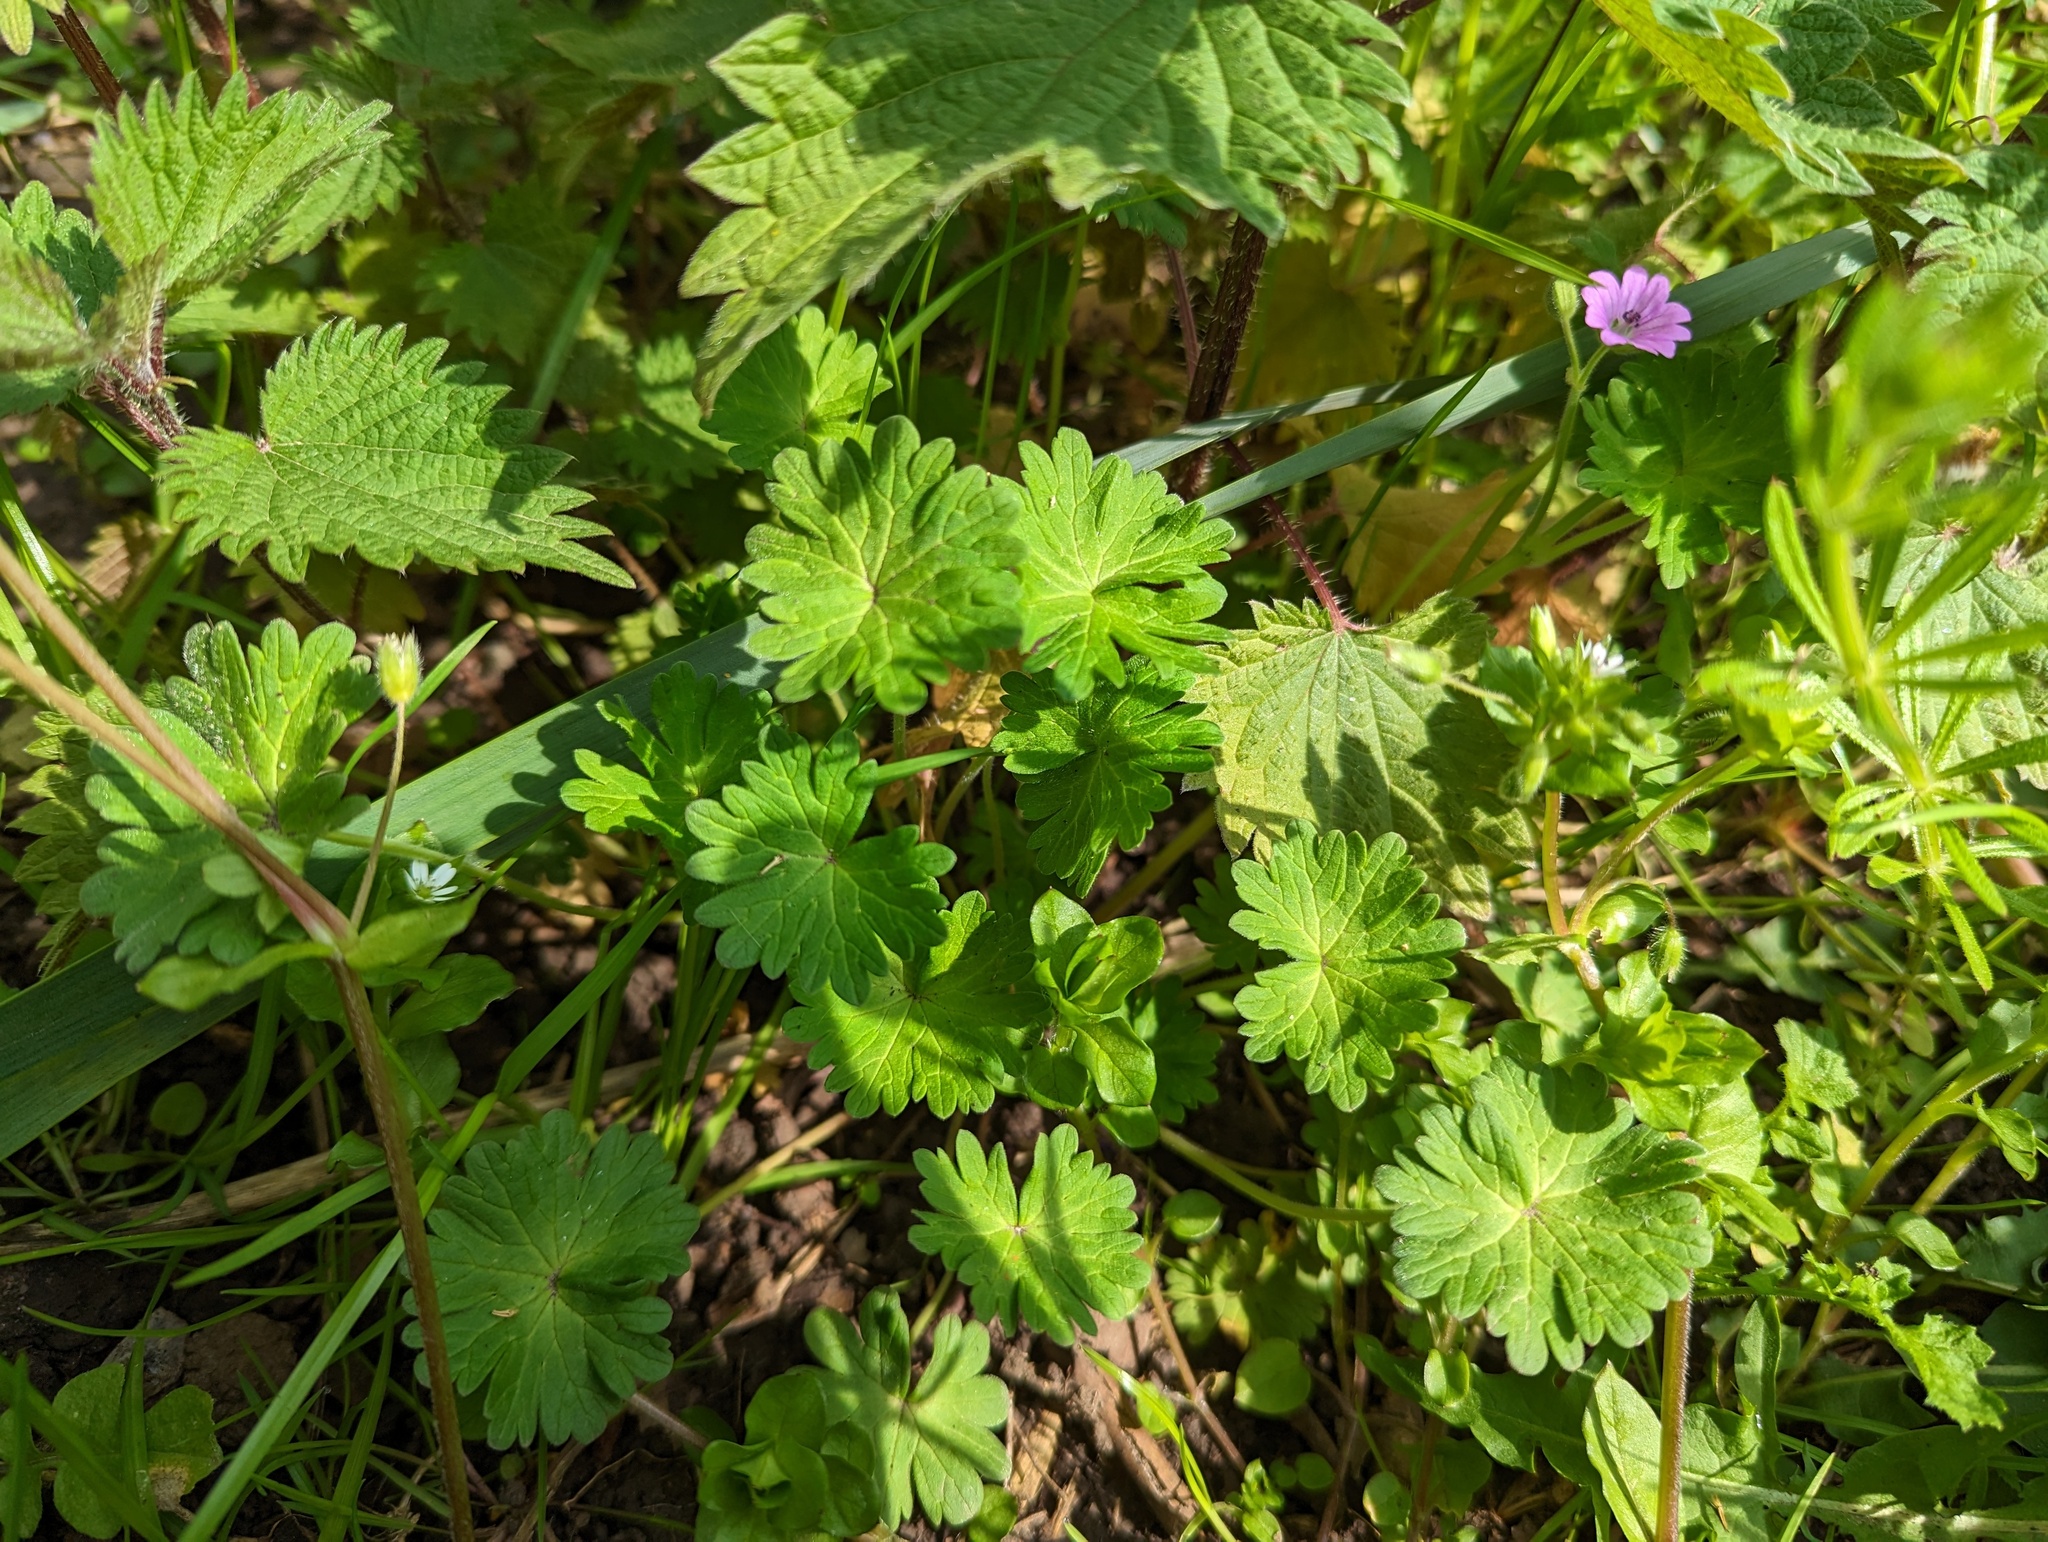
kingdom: Plantae
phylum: Tracheophyta
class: Magnoliopsida
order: Geraniales
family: Geraniaceae
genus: Geranium
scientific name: Geranium molle
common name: Dove's-foot crane's-bill
